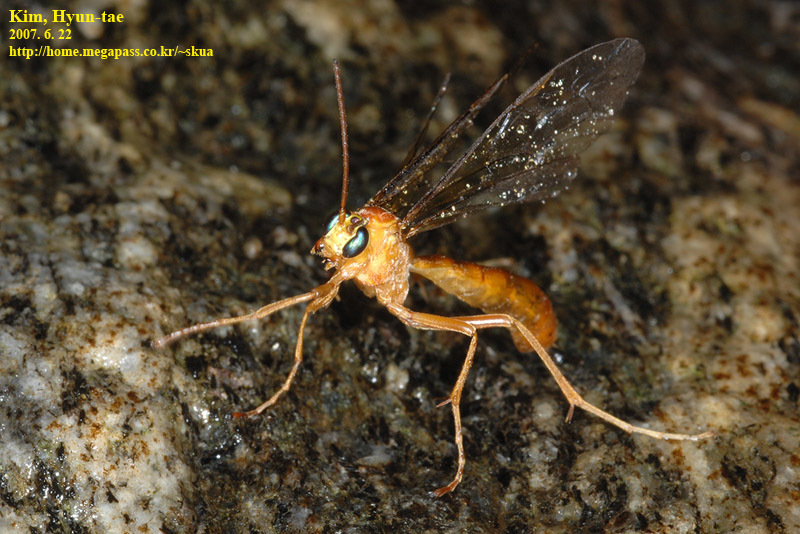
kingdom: Animalia
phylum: Arthropoda
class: Insecta
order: Hymenoptera
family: Ichneumonidae
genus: Netelia
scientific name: Netelia unicolor
